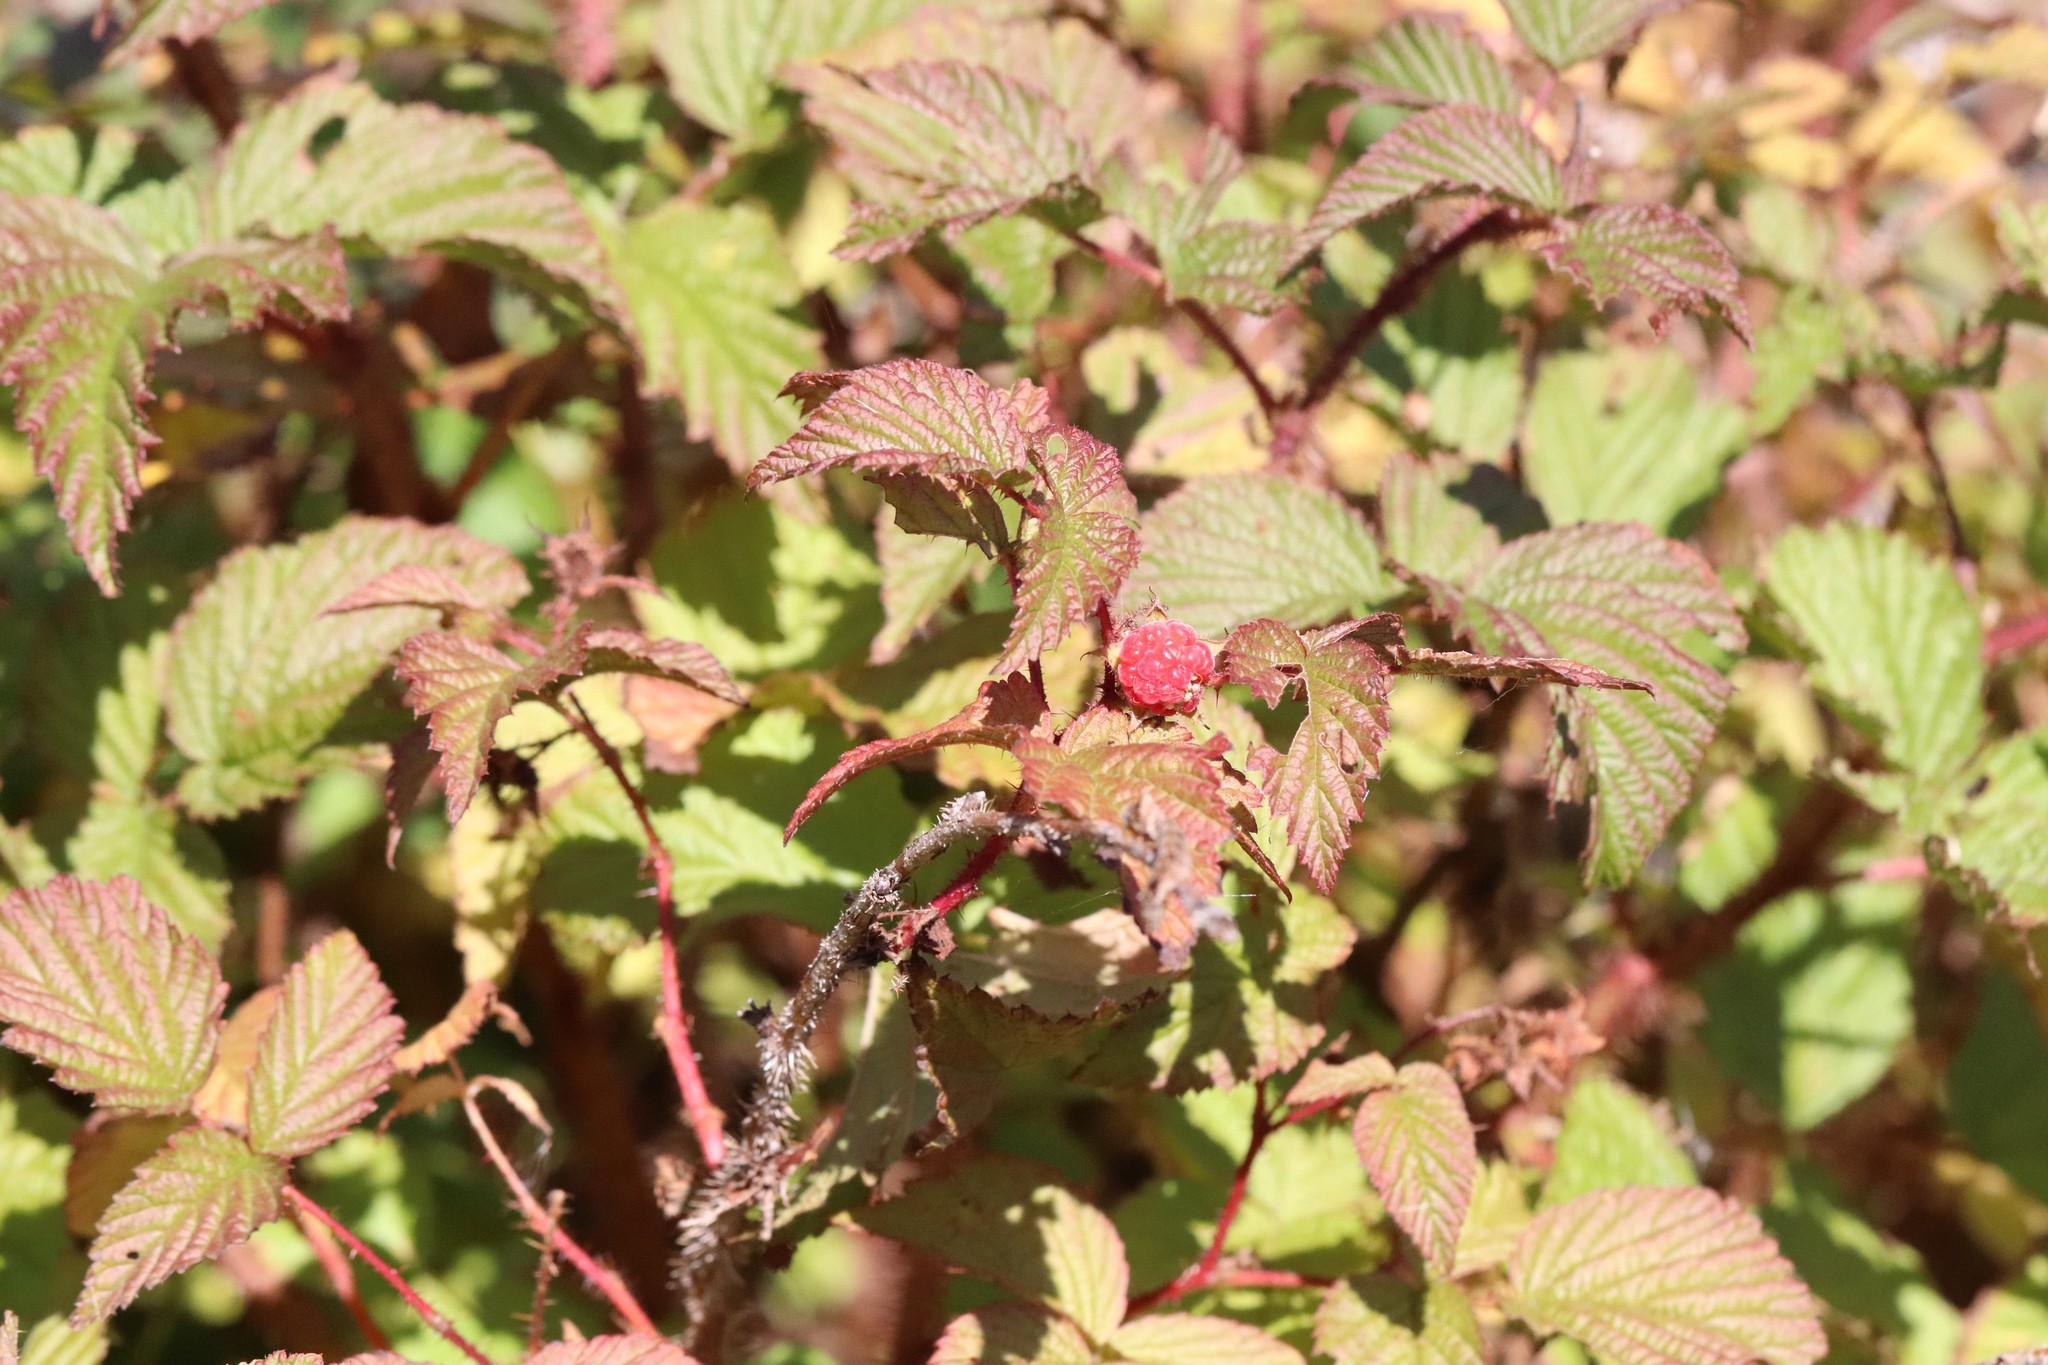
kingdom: Plantae
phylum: Tracheophyta
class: Magnoliopsida
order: Rosales
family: Rosaceae
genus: Rubus
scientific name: Rubus sachalinensis
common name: Red raspberry
